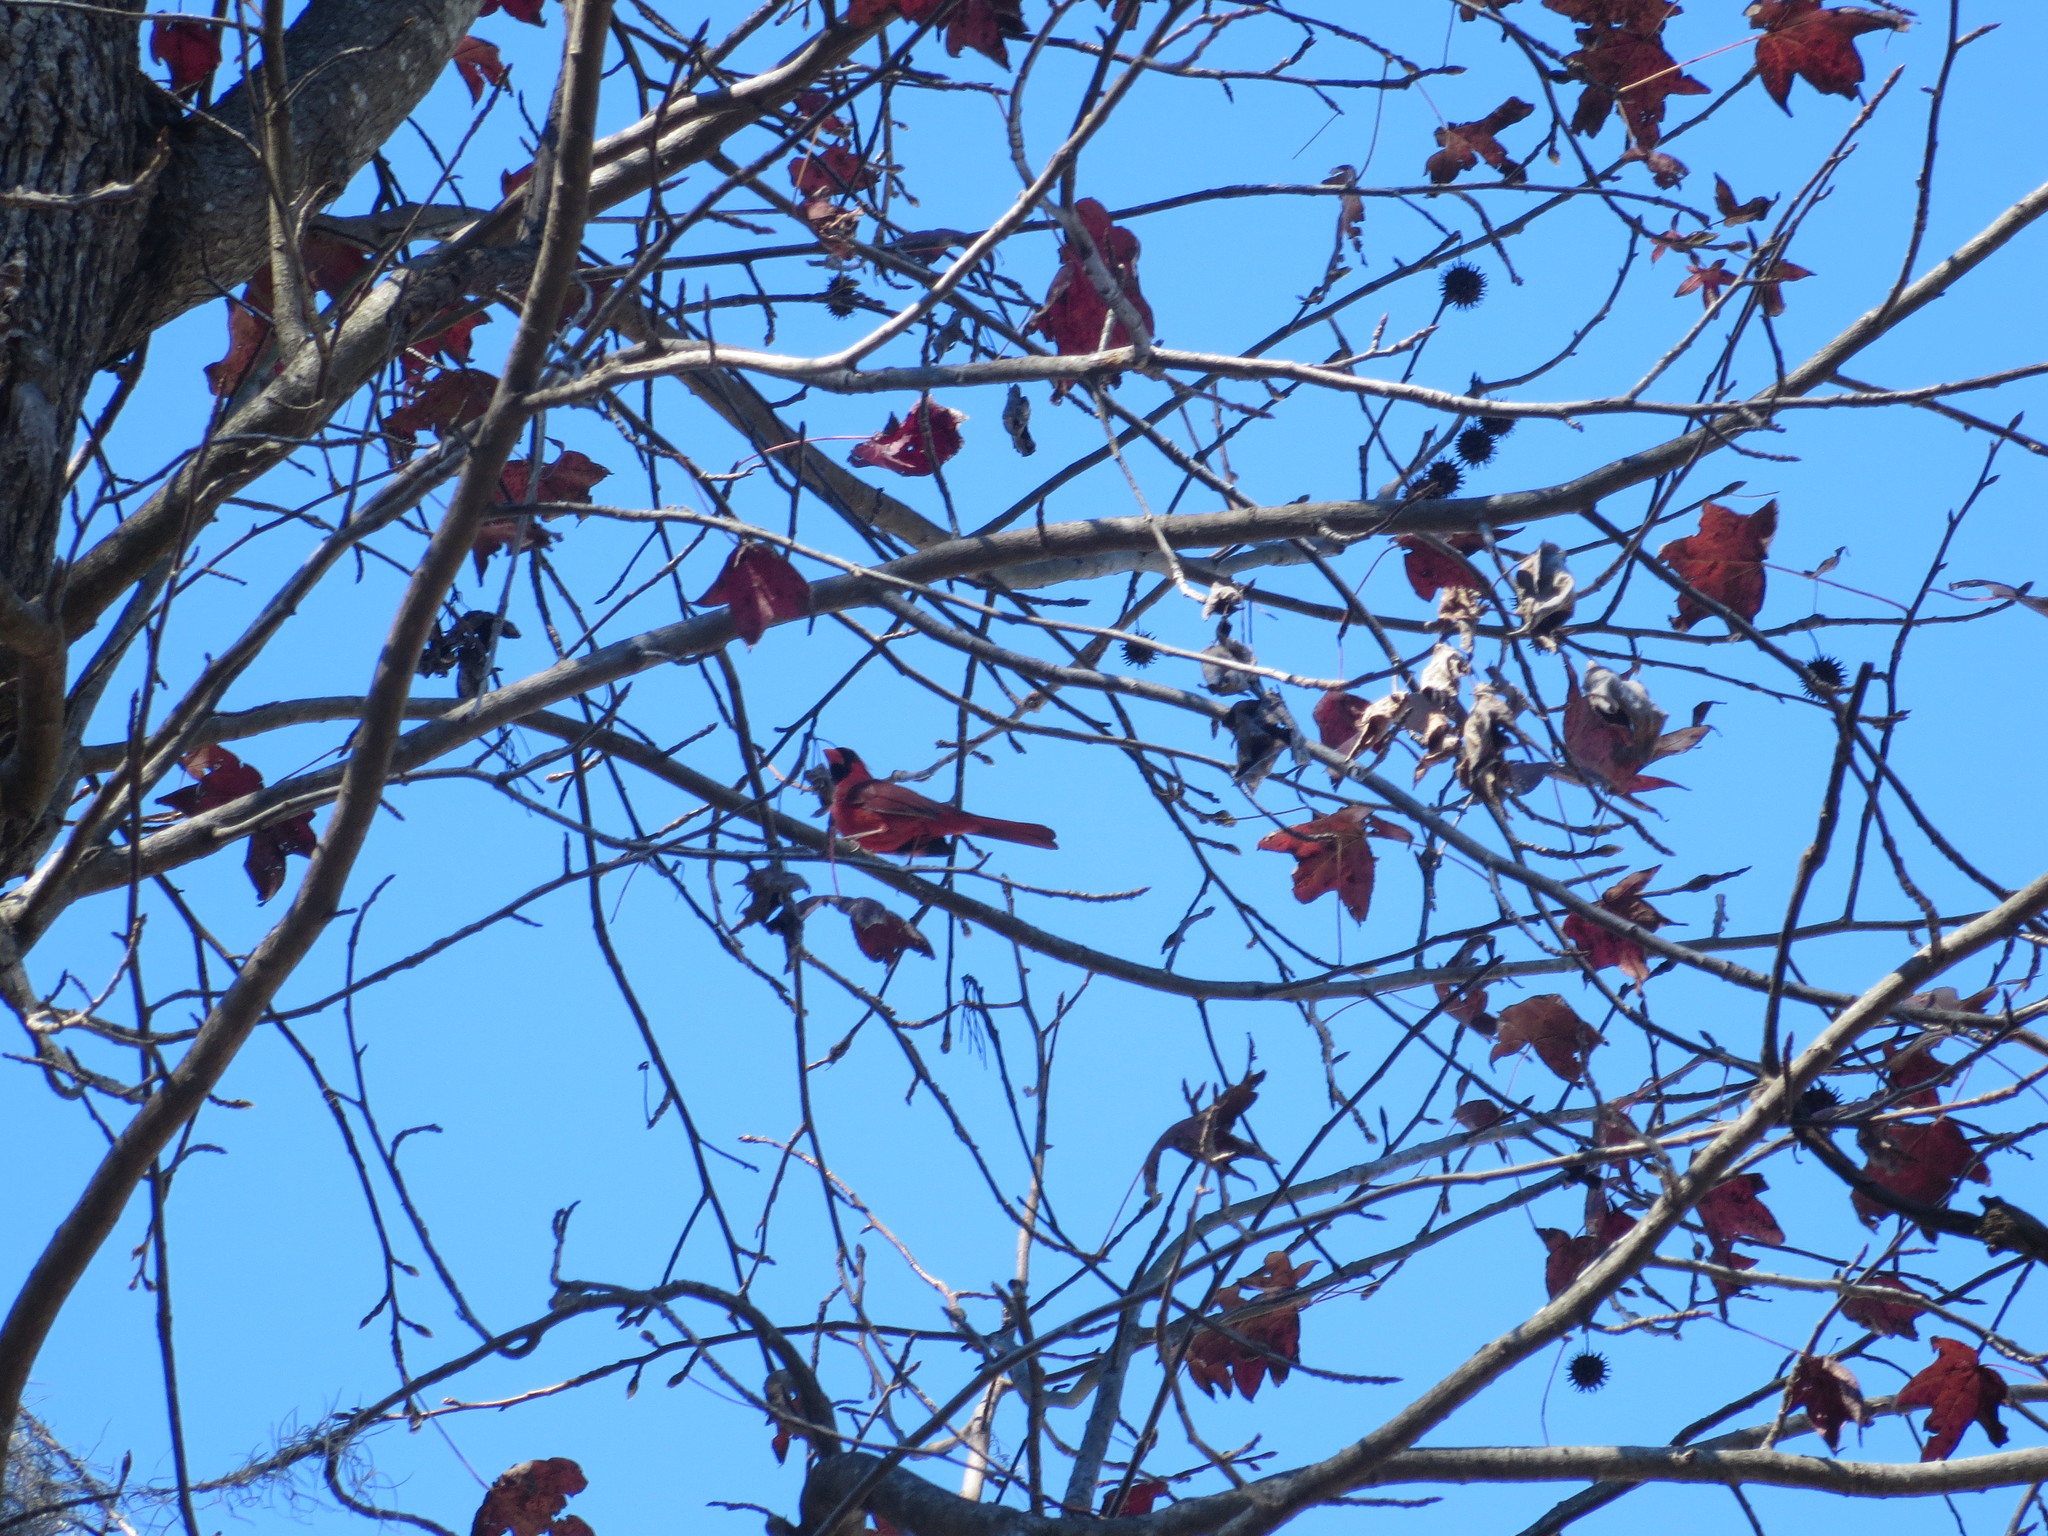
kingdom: Animalia
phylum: Chordata
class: Aves
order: Passeriformes
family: Cardinalidae
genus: Cardinalis
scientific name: Cardinalis cardinalis
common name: Northern cardinal
